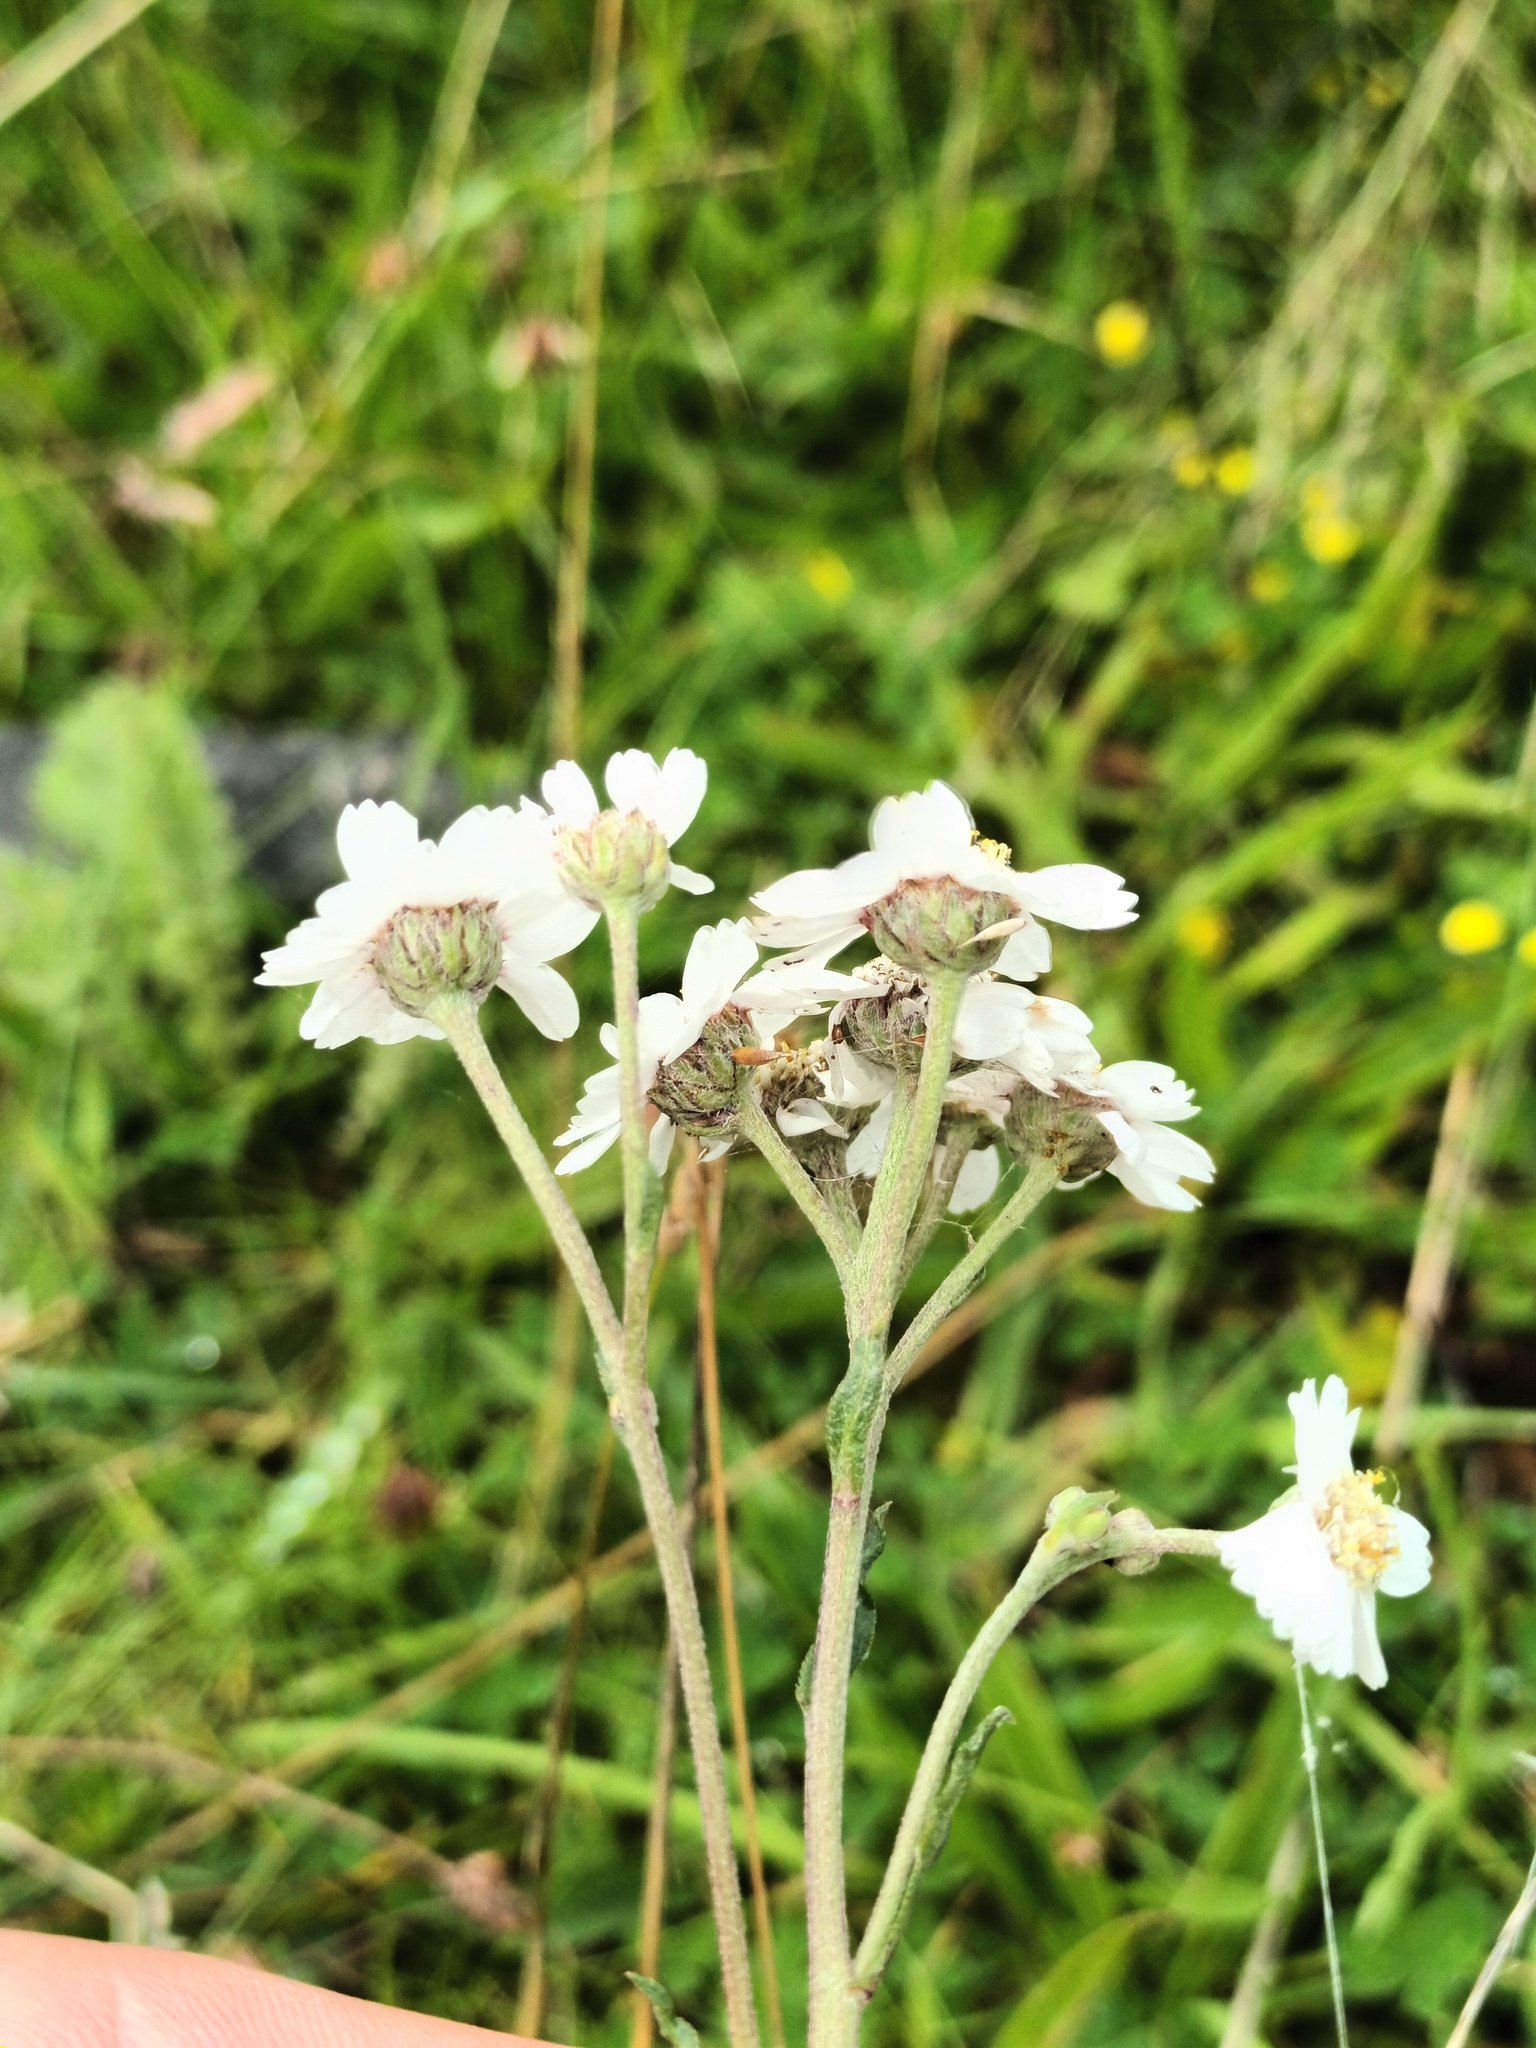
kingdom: Plantae
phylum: Tracheophyta
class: Magnoliopsida
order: Asterales
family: Asteraceae
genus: Achillea
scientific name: Achillea ptarmica
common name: Sneezeweed
